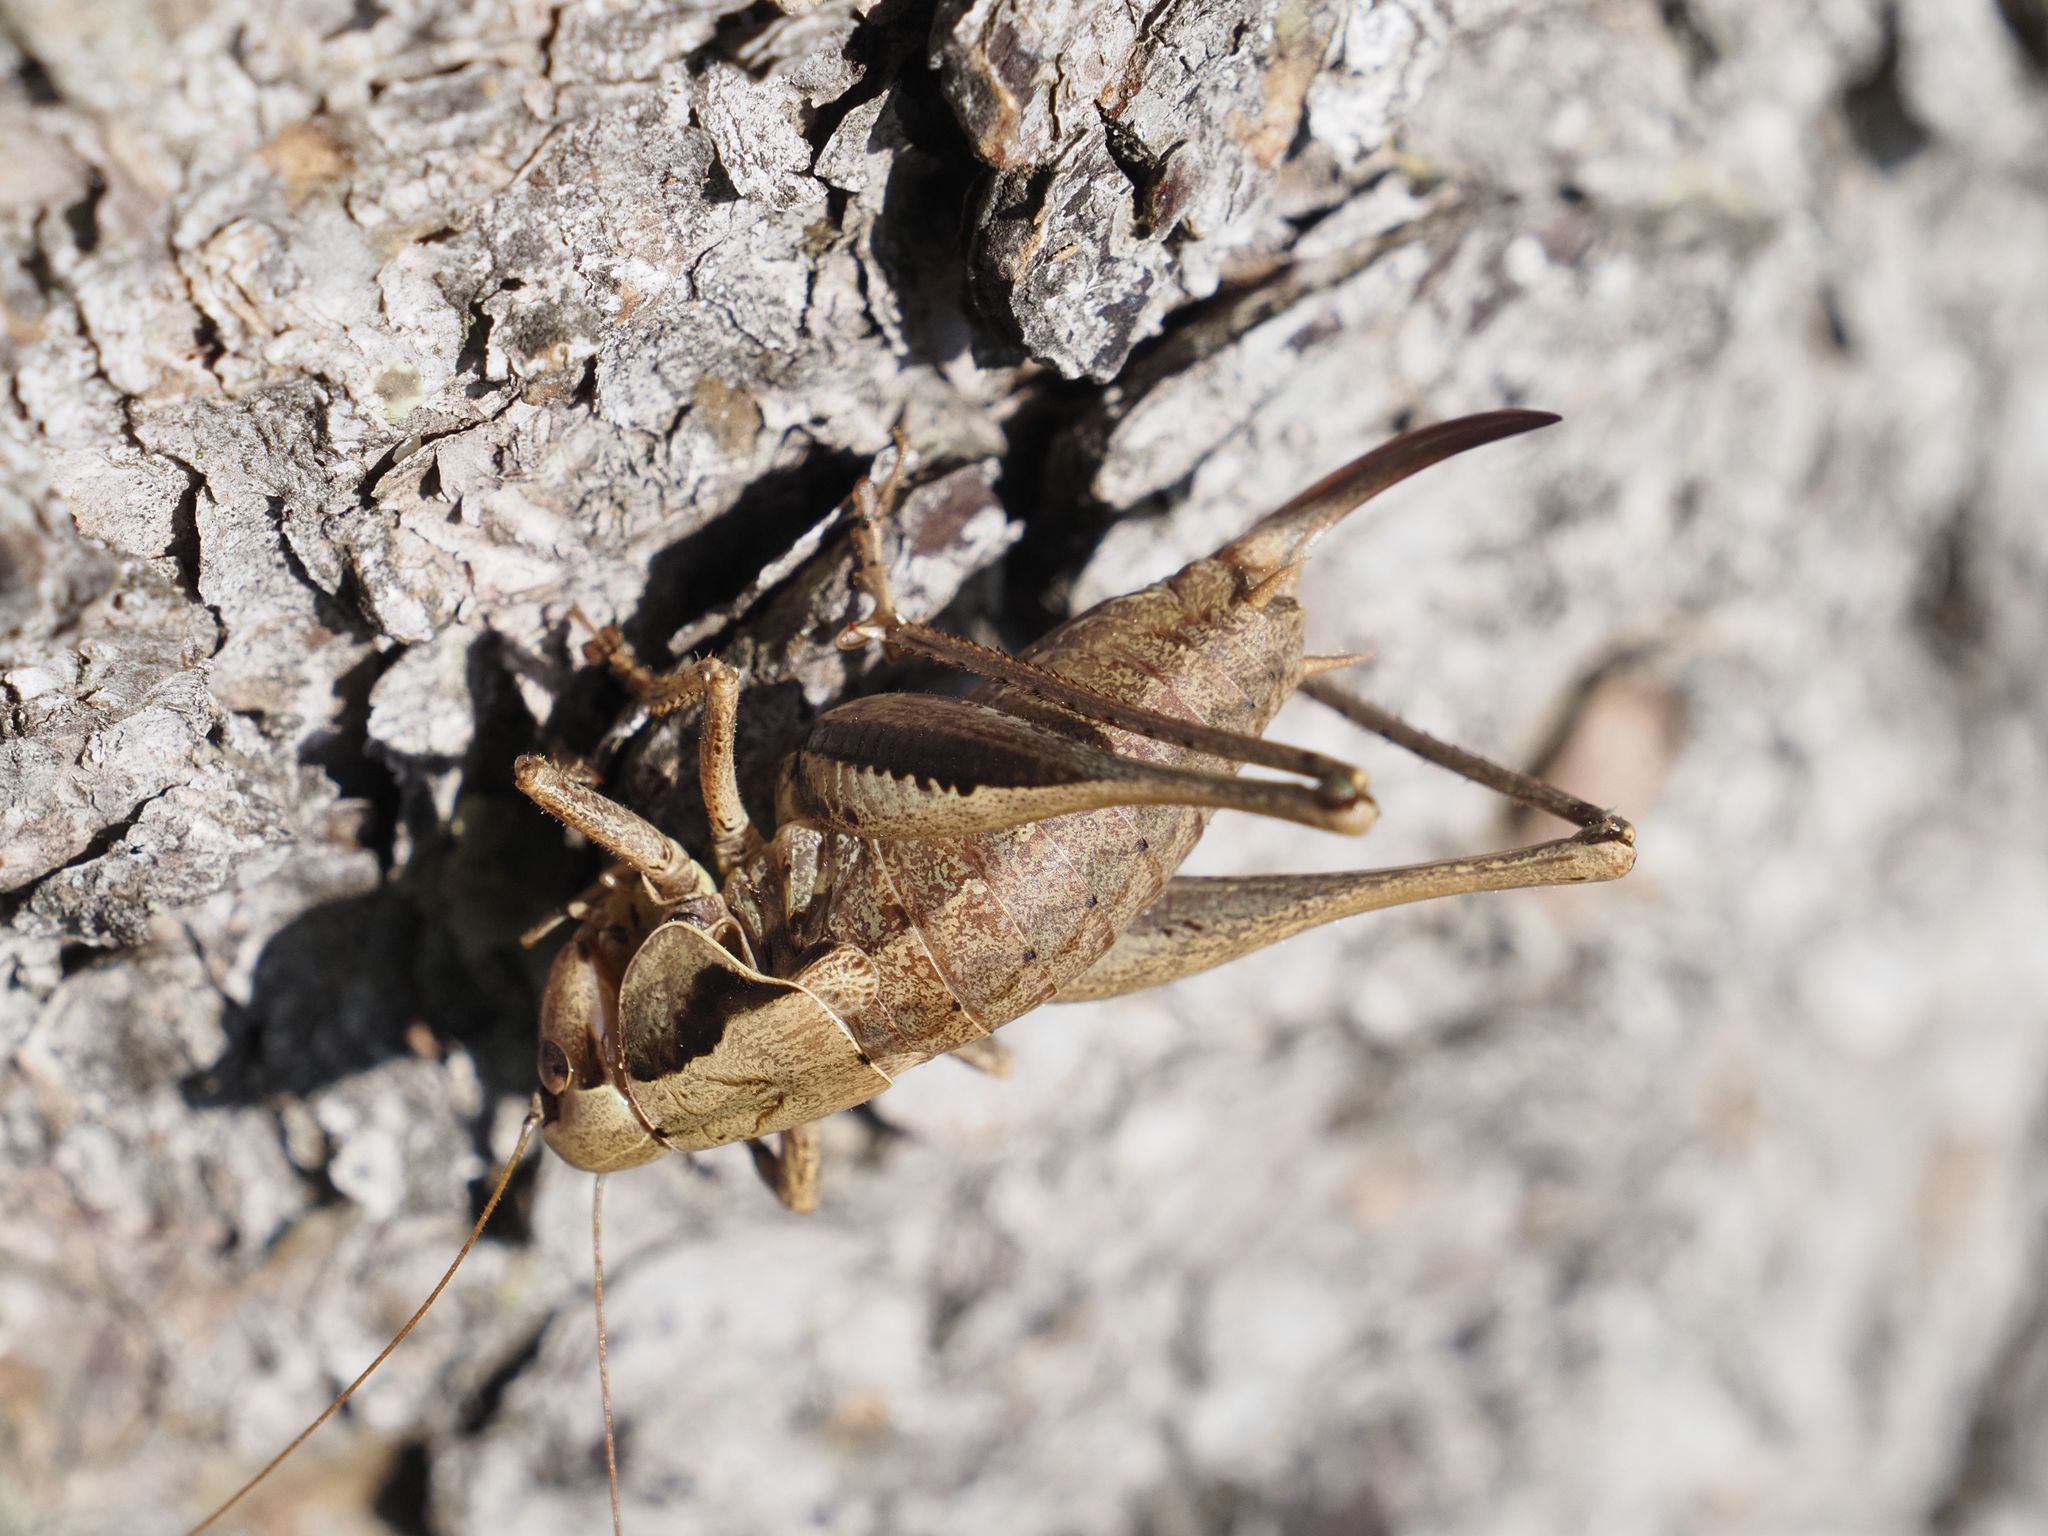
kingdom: Animalia
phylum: Arthropoda
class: Insecta
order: Orthoptera
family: Tettigoniidae
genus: Pholidoptera
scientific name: Pholidoptera griseoaptera
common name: Dark bush-cricket
